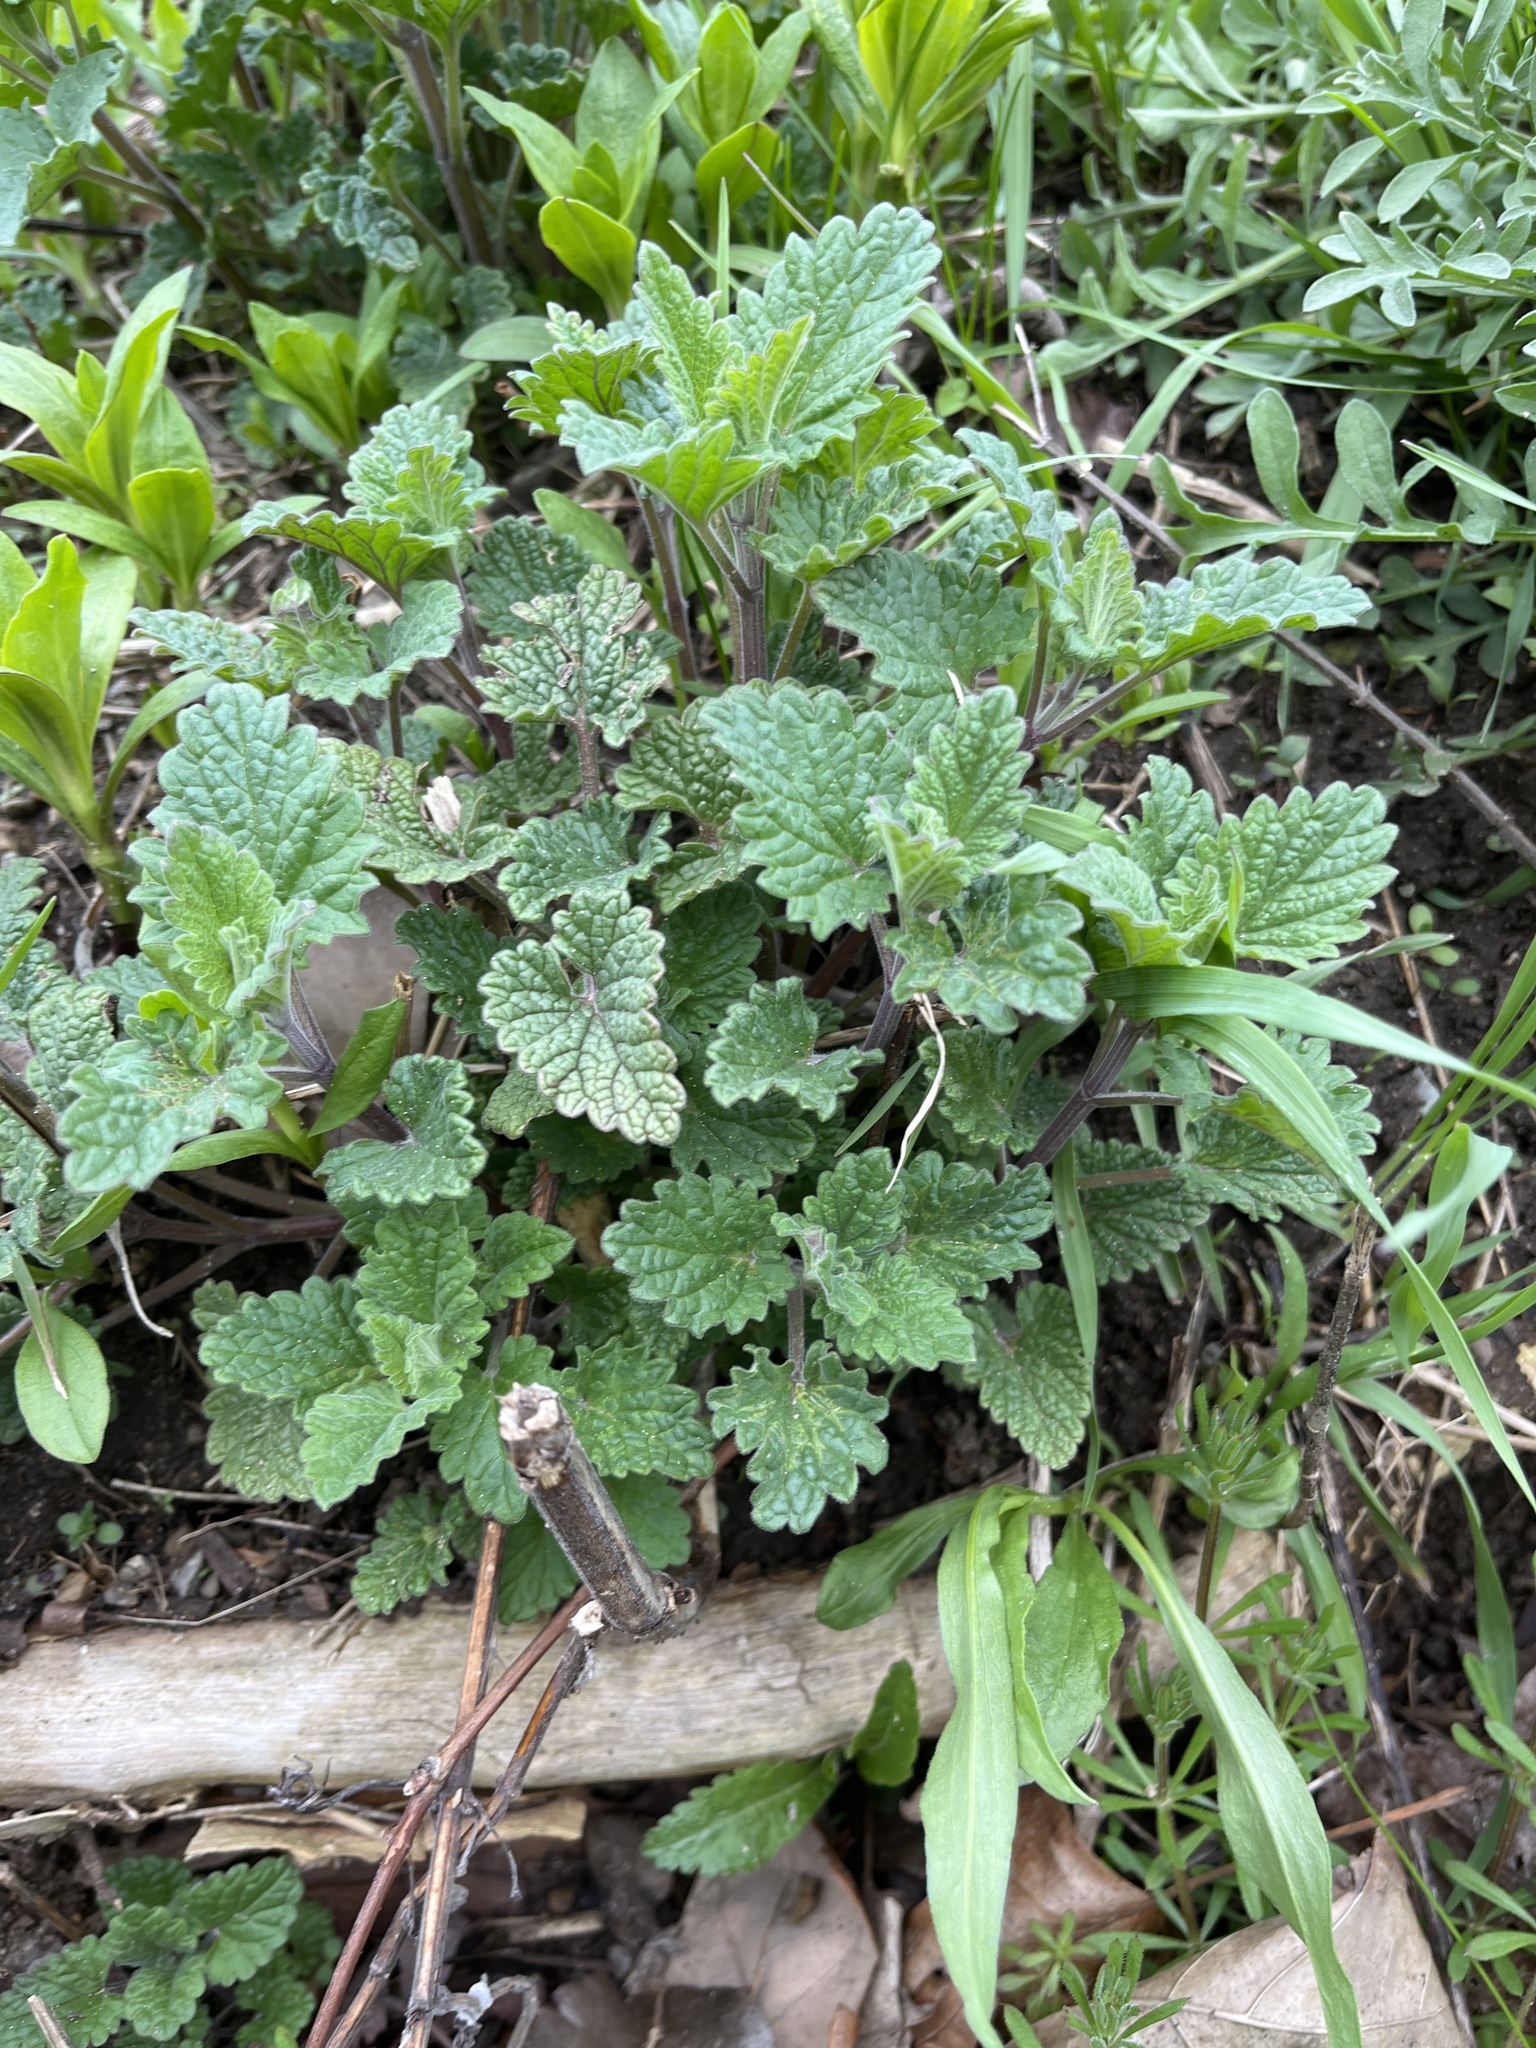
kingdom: Plantae
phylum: Tracheophyta
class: Magnoliopsida
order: Lamiales
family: Lamiaceae
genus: Nepeta
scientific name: Nepeta cataria
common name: Catnip
